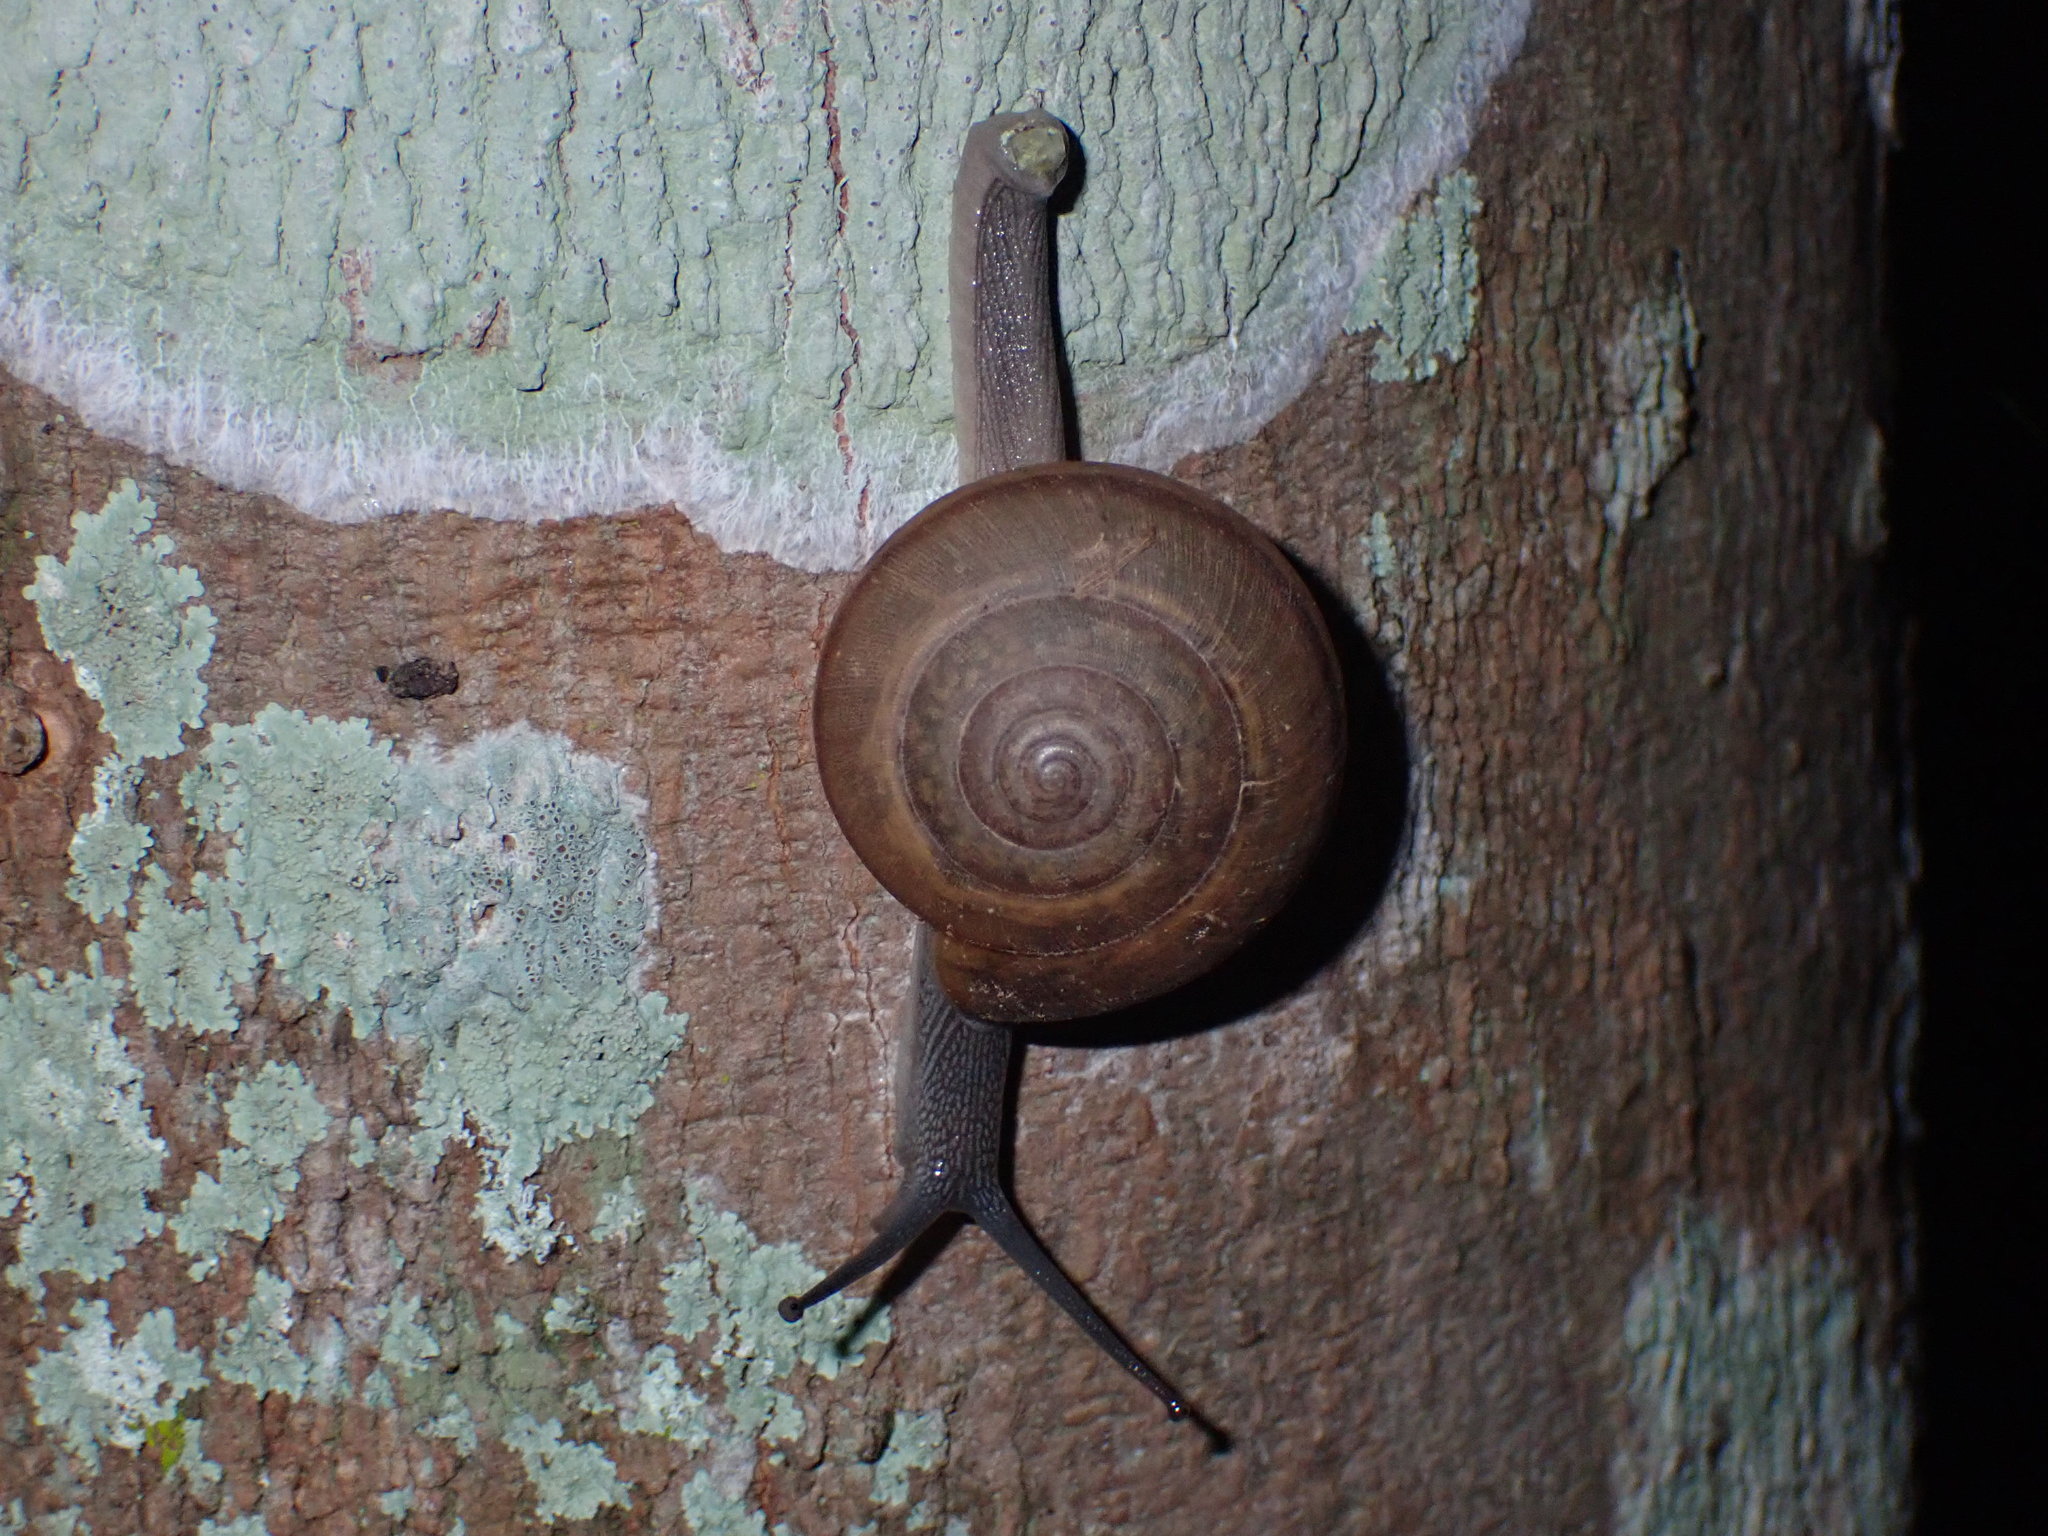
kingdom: Animalia
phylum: Mollusca
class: Gastropoda
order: Stylommatophora
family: Ariophantidae
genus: Sarika
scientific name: Sarika siamensis
